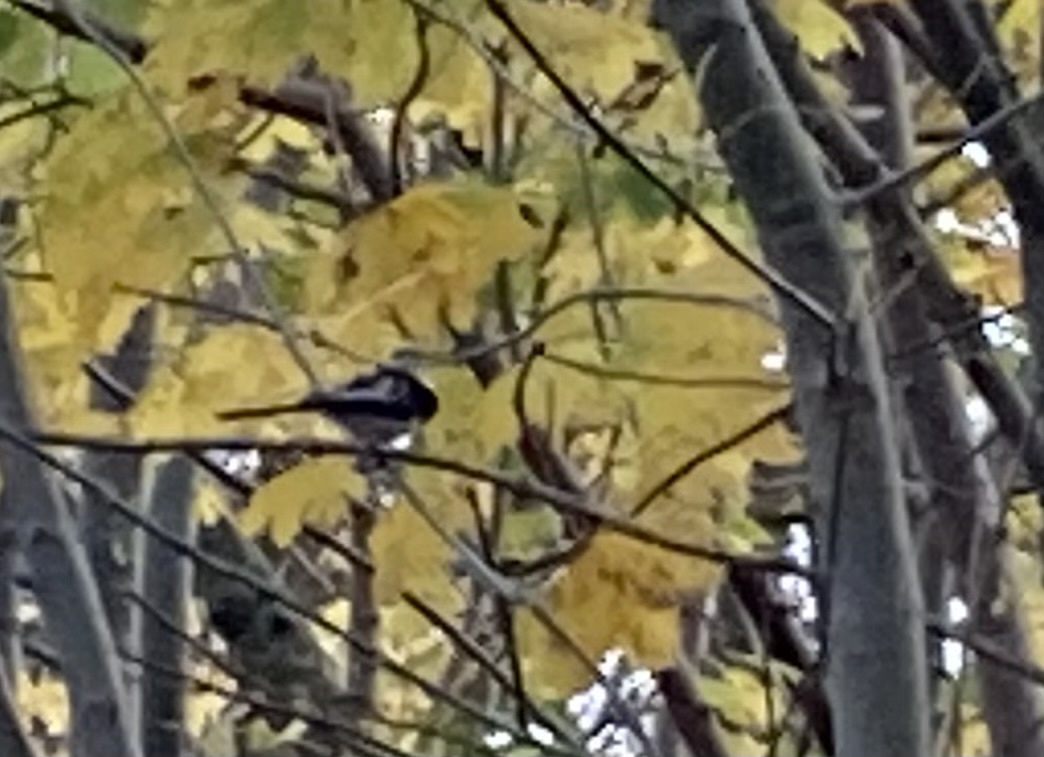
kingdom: Animalia
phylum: Chordata
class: Aves
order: Passeriformes
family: Aegithalidae
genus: Aegithalos
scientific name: Aegithalos caudatus
